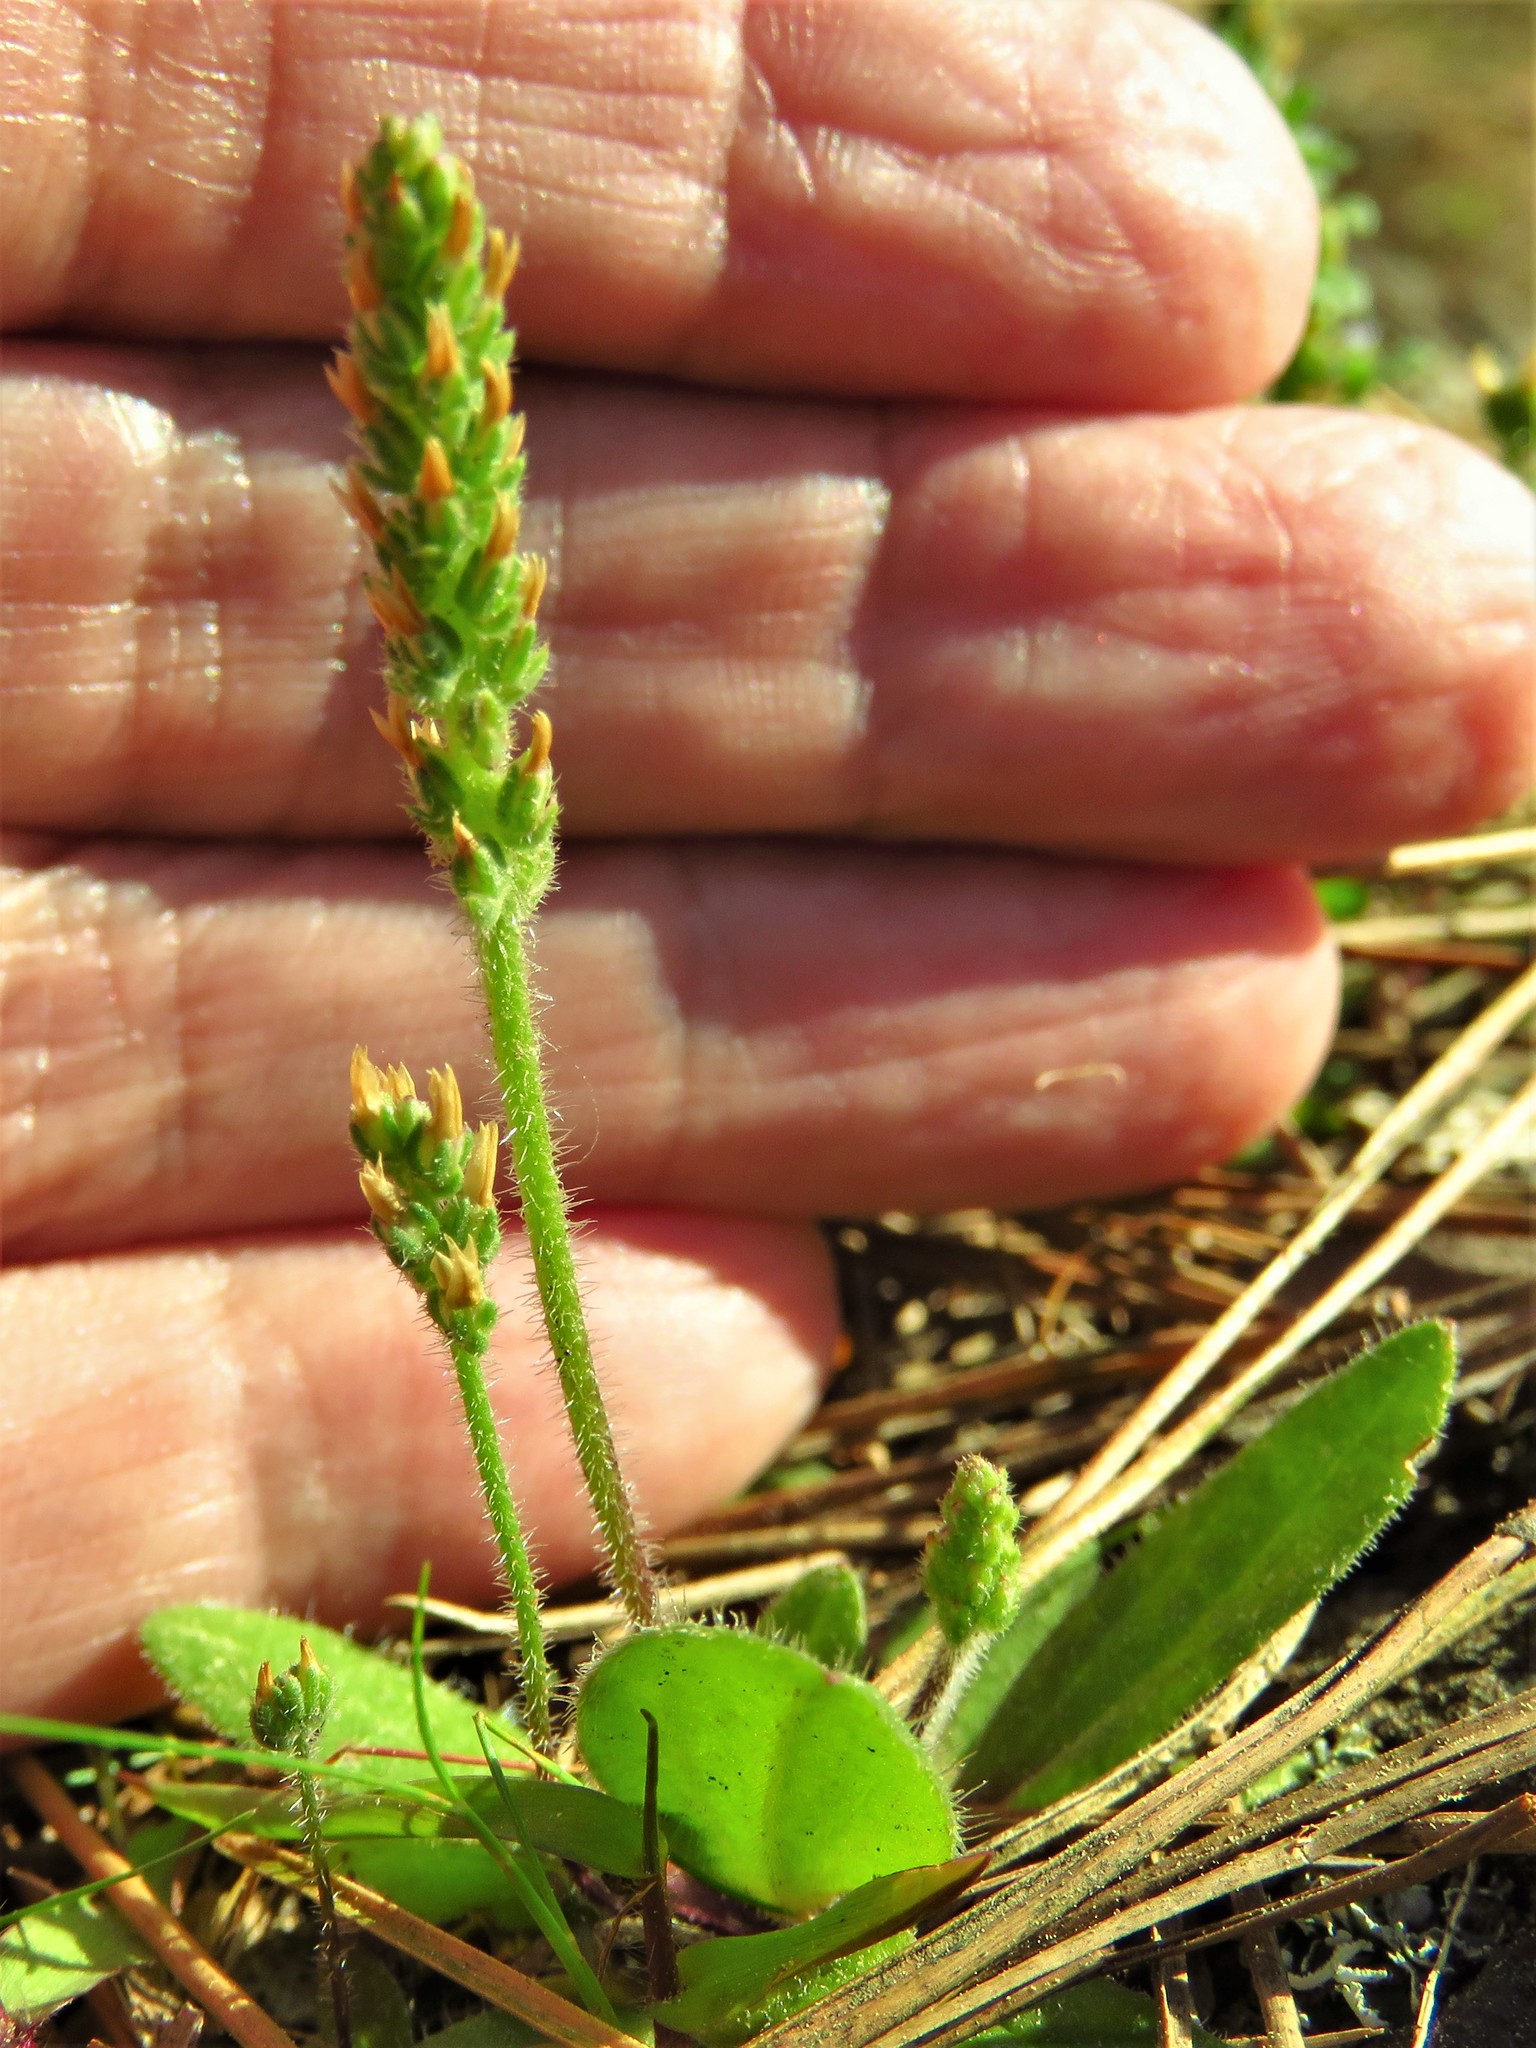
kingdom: Plantae
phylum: Tracheophyta
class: Magnoliopsida
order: Lamiales
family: Plantaginaceae
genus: Plantago
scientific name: Plantago virginica
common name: Hoary plantain
